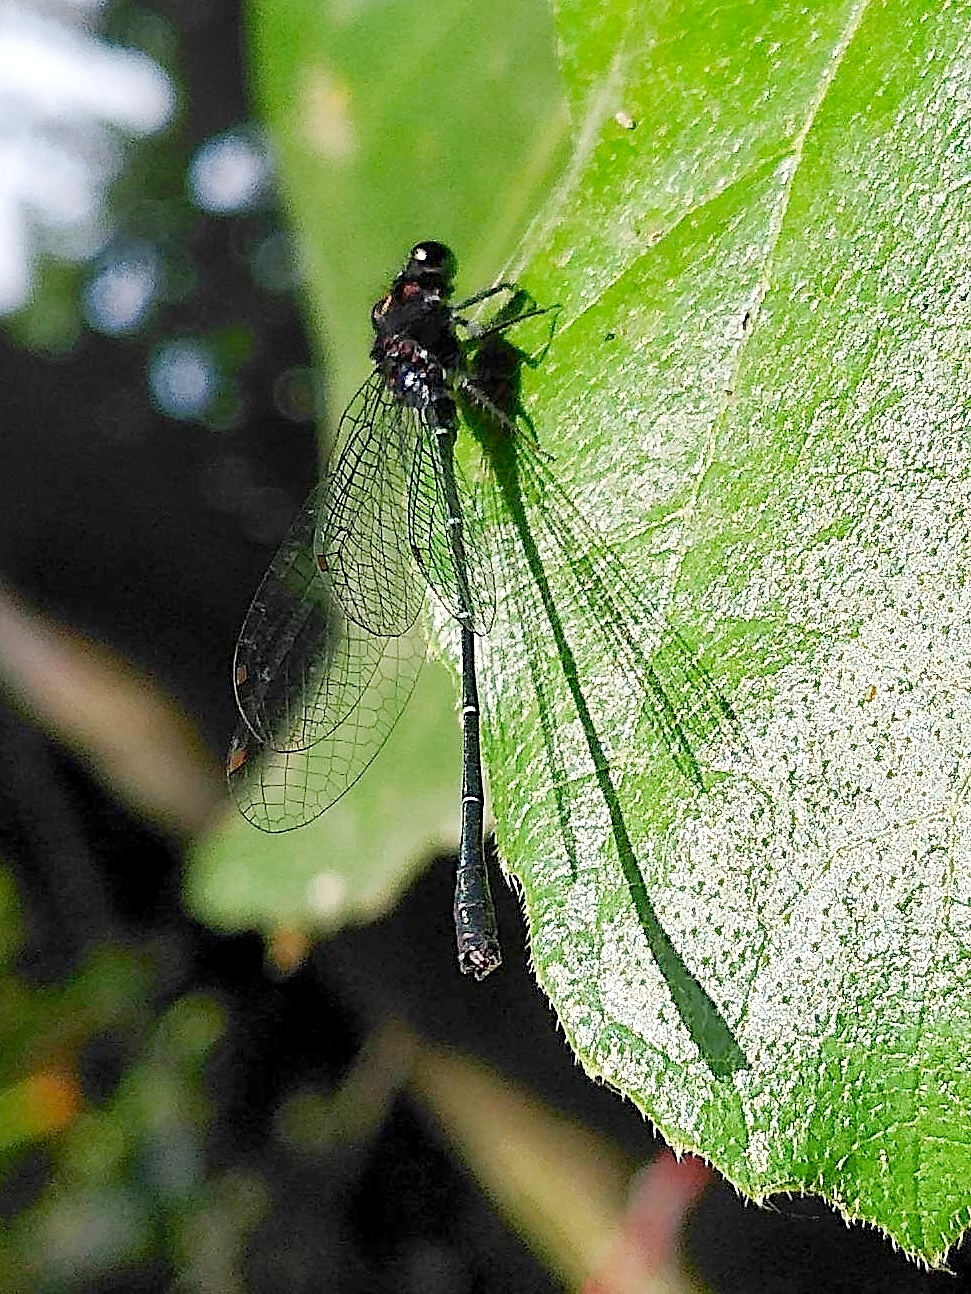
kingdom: Animalia
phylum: Arthropoda
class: Insecta
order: Odonata
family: Platycnemididae
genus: Onychargia
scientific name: Onychargia atrocyana
